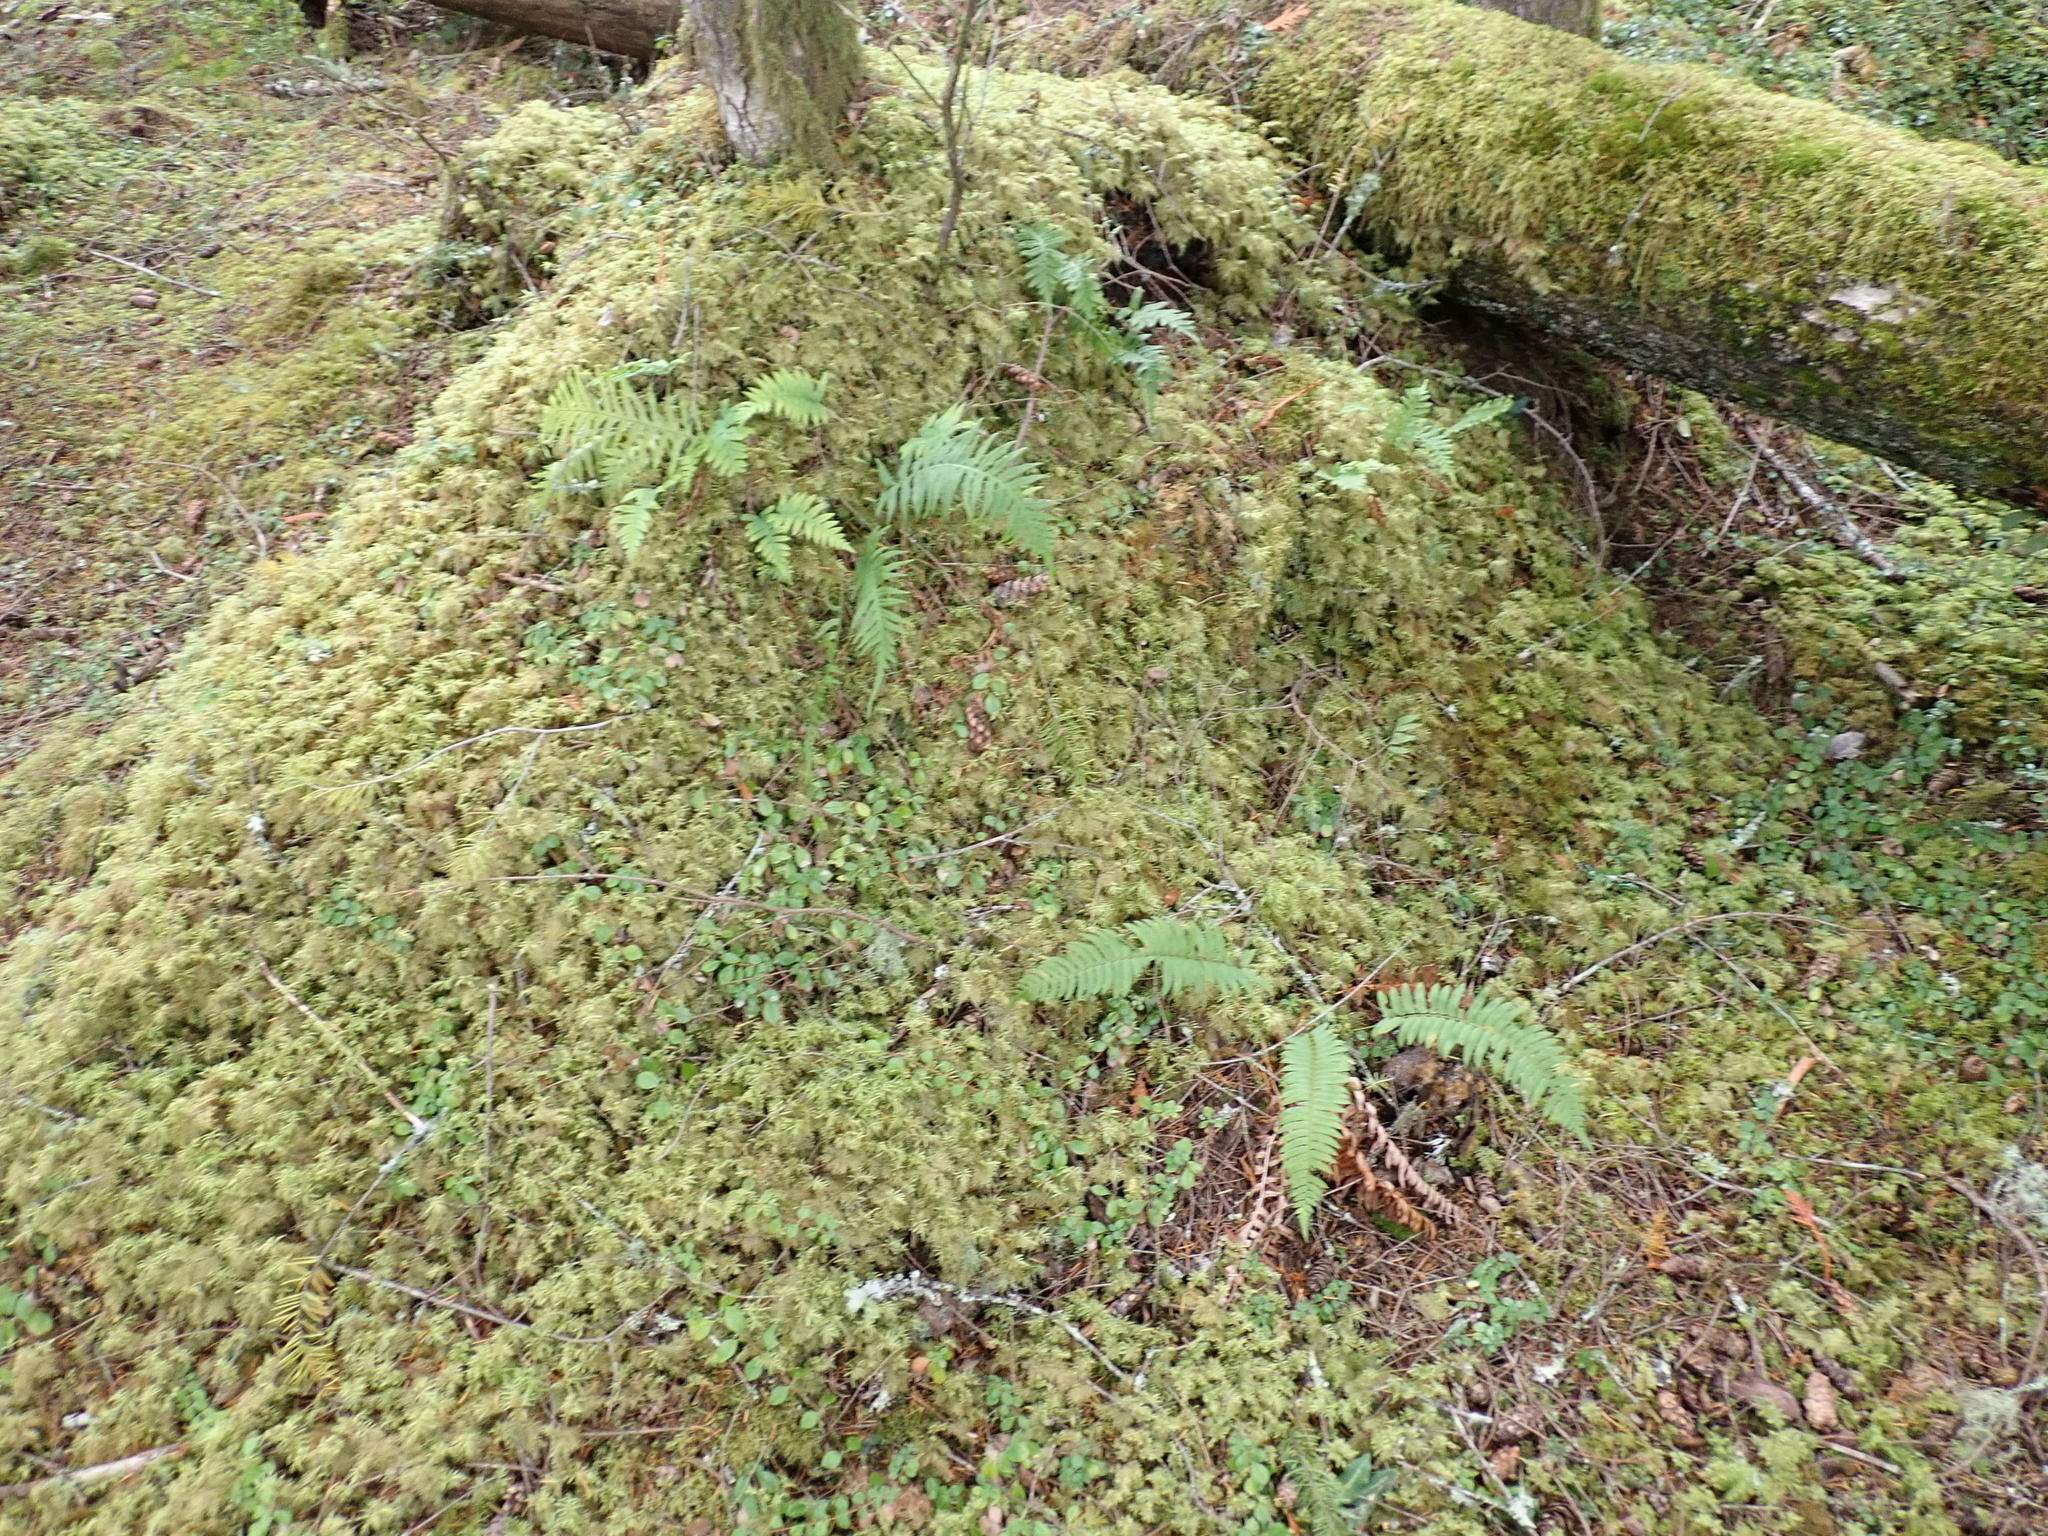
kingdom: Plantae
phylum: Bryophyta
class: Bryopsida
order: Hypnales
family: Hylocomiaceae
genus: Hylocomium
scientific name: Hylocomium splendens
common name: Stairstep moss
